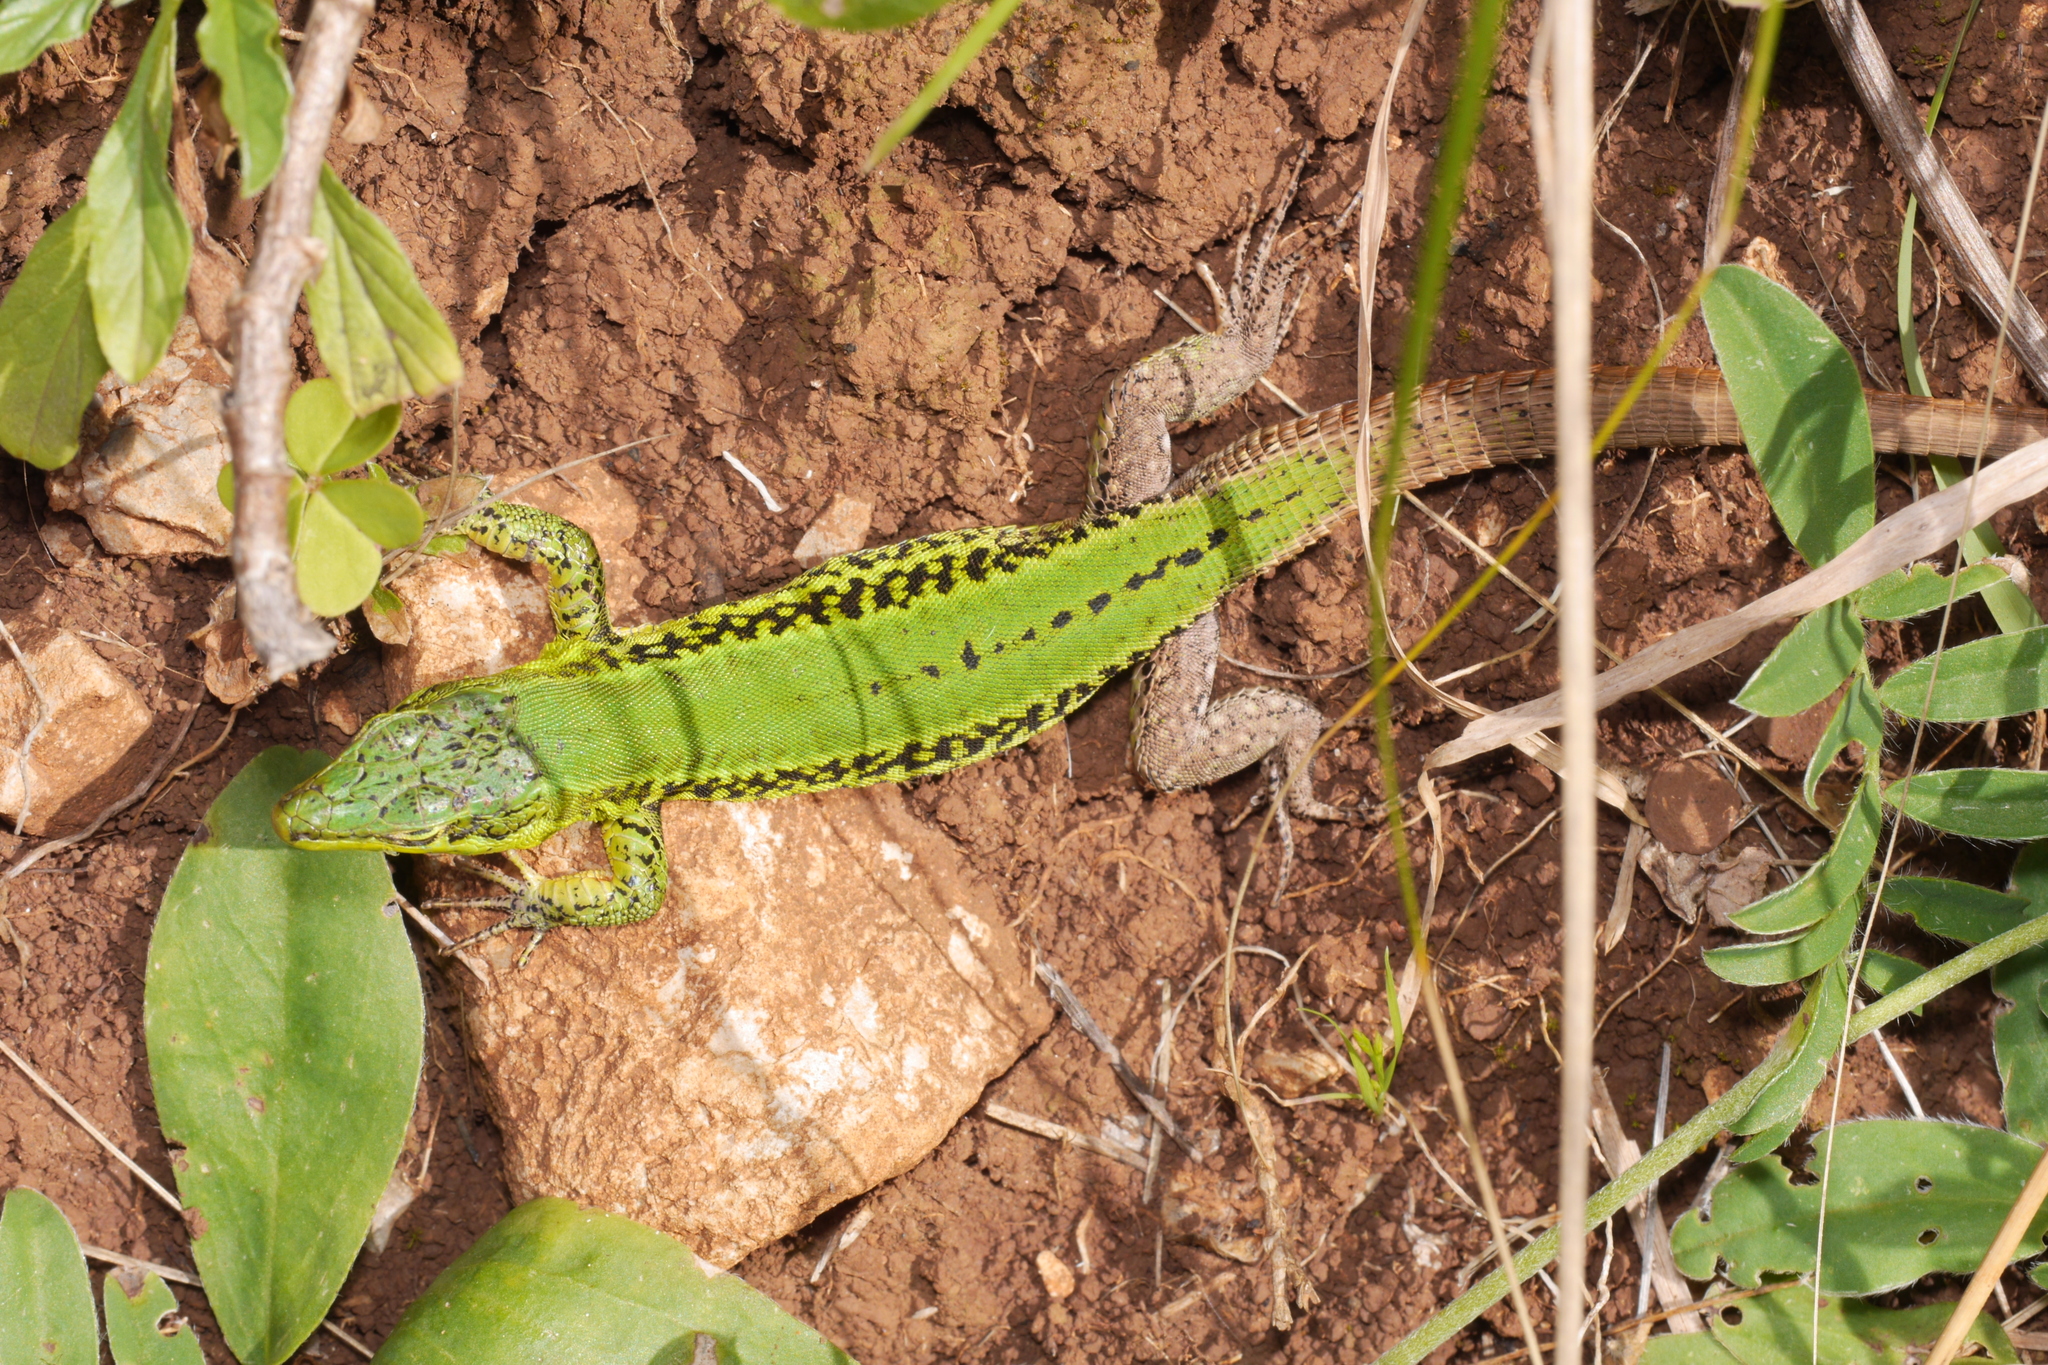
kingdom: Animalia
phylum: Chordata
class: Squamata
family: Lacertidae
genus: Podarcis
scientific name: Podarcis waglerianus
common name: Sicilian wall lizard
